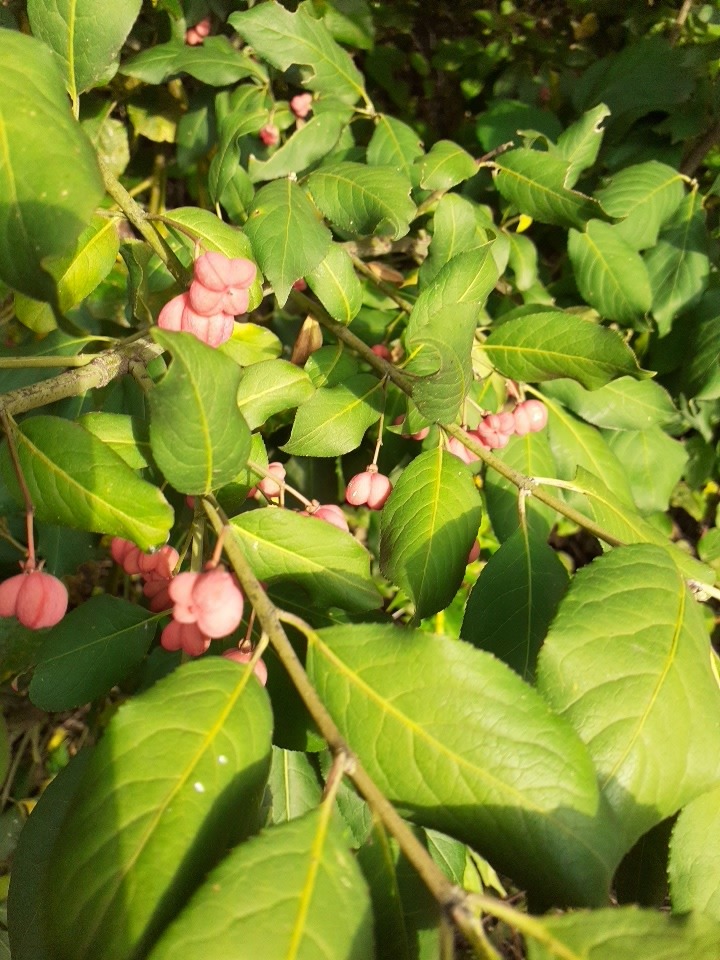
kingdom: Plantae
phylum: Tracheophyta
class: Magnoliopsida
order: Celastrales
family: Celastraceae
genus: Euonymus
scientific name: Euonymus europaeus
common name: Spindle
